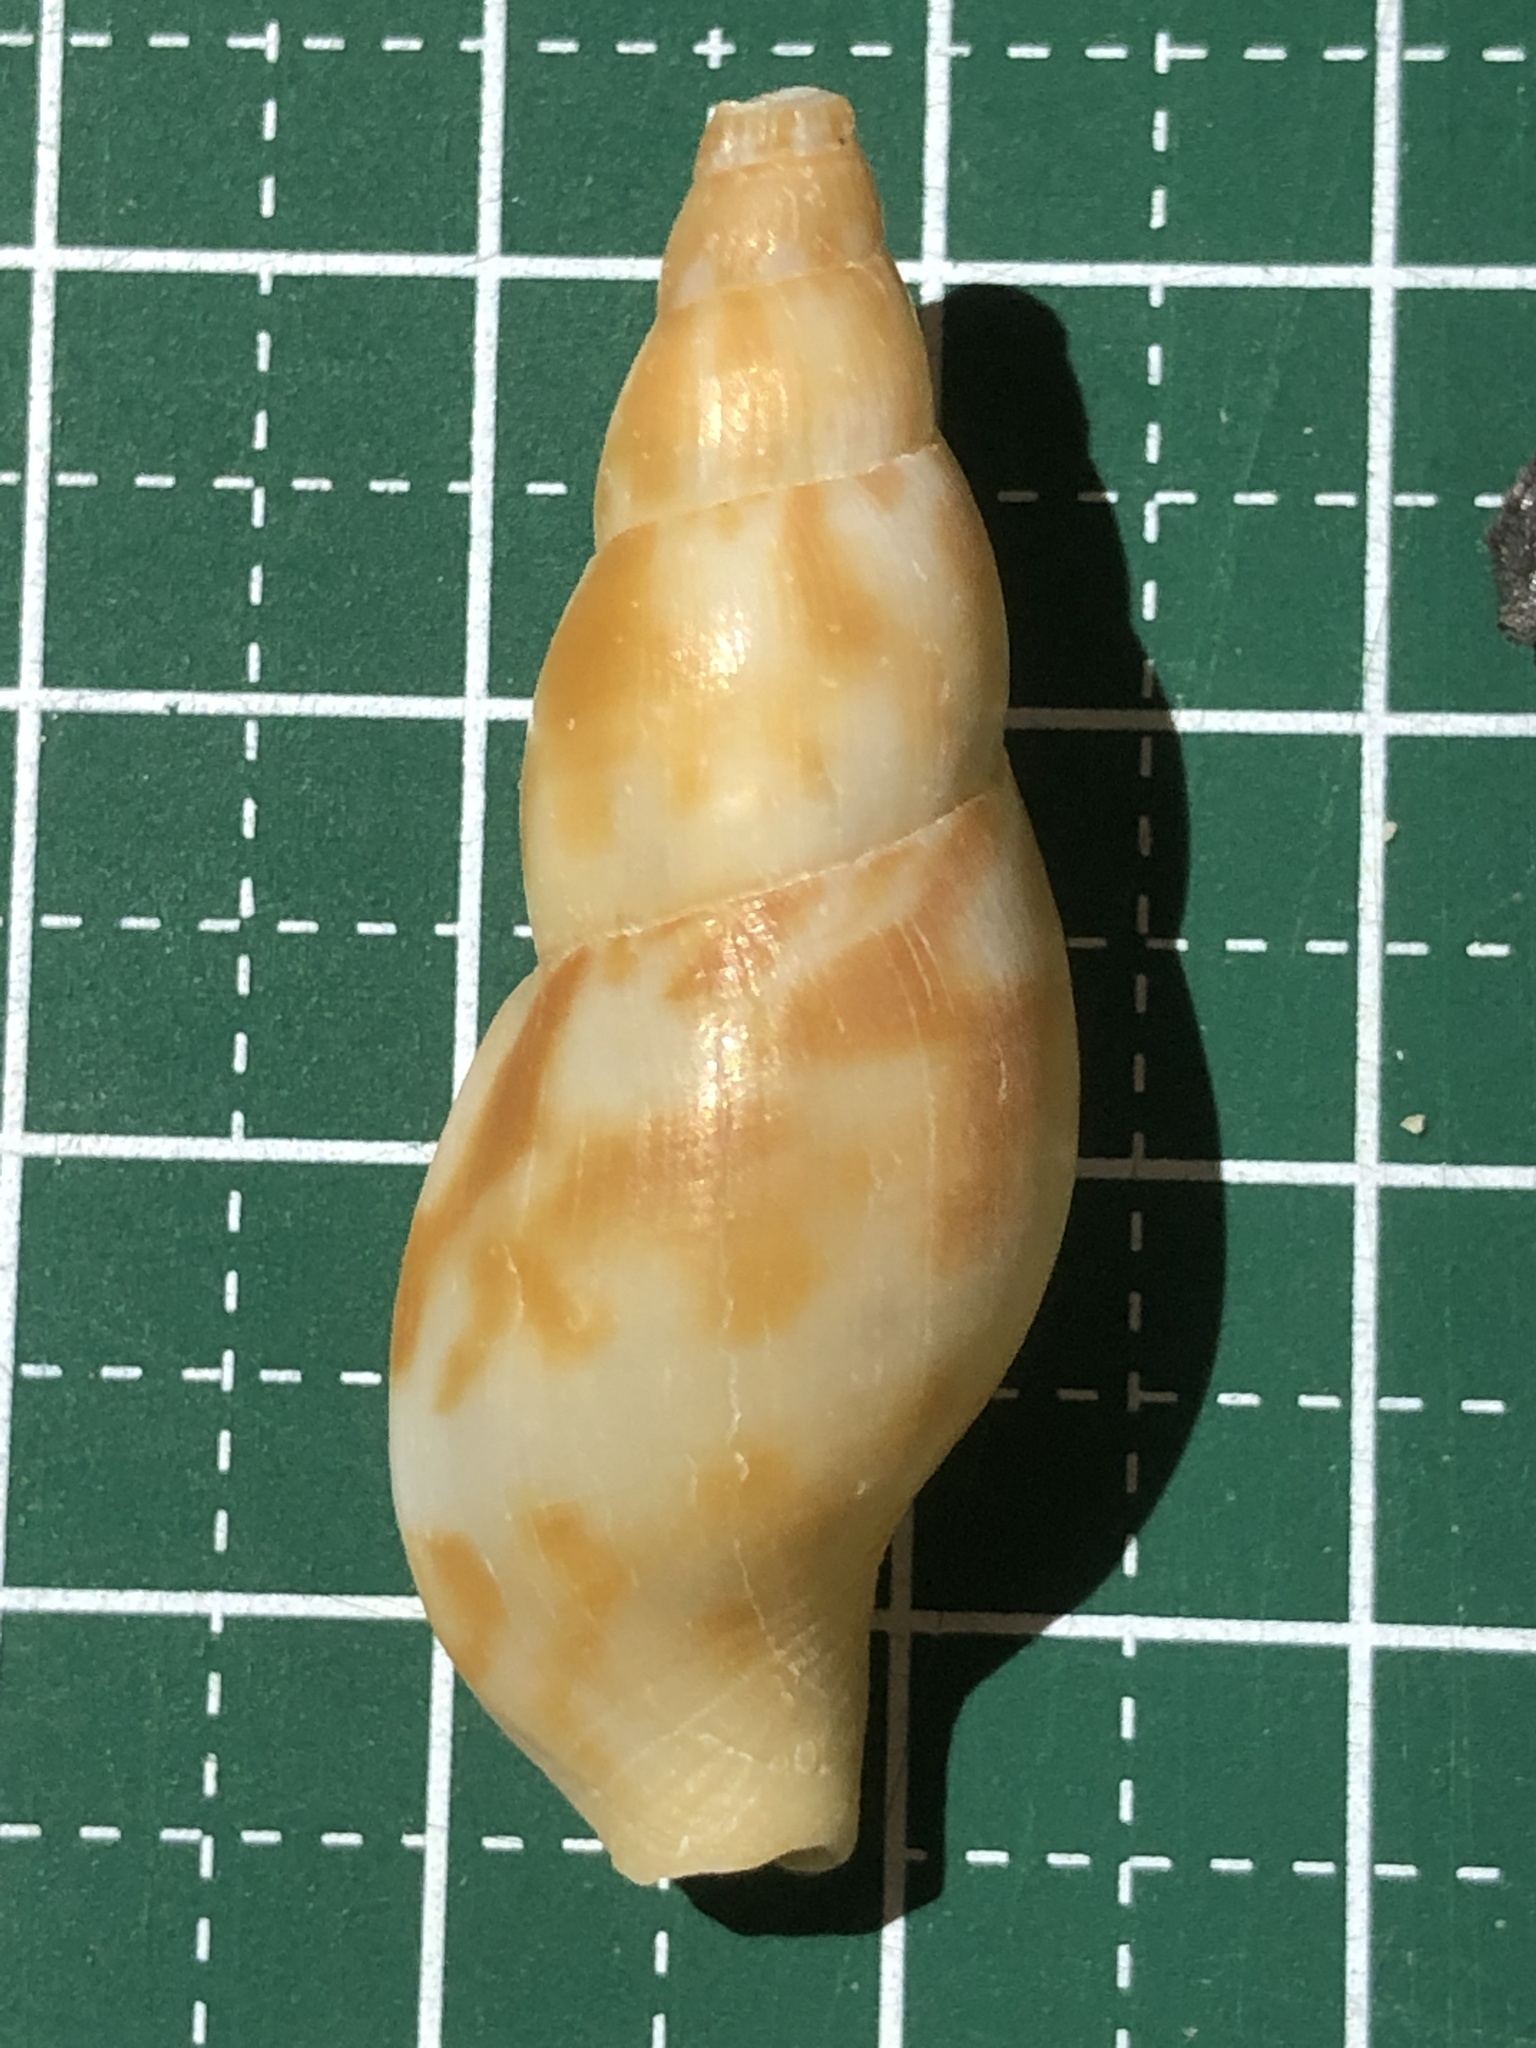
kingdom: Animalia
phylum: Mollusca
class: Gastropoda
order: Neogastropoda
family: Pisaniidae
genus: Pisania
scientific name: Pisania ignea
